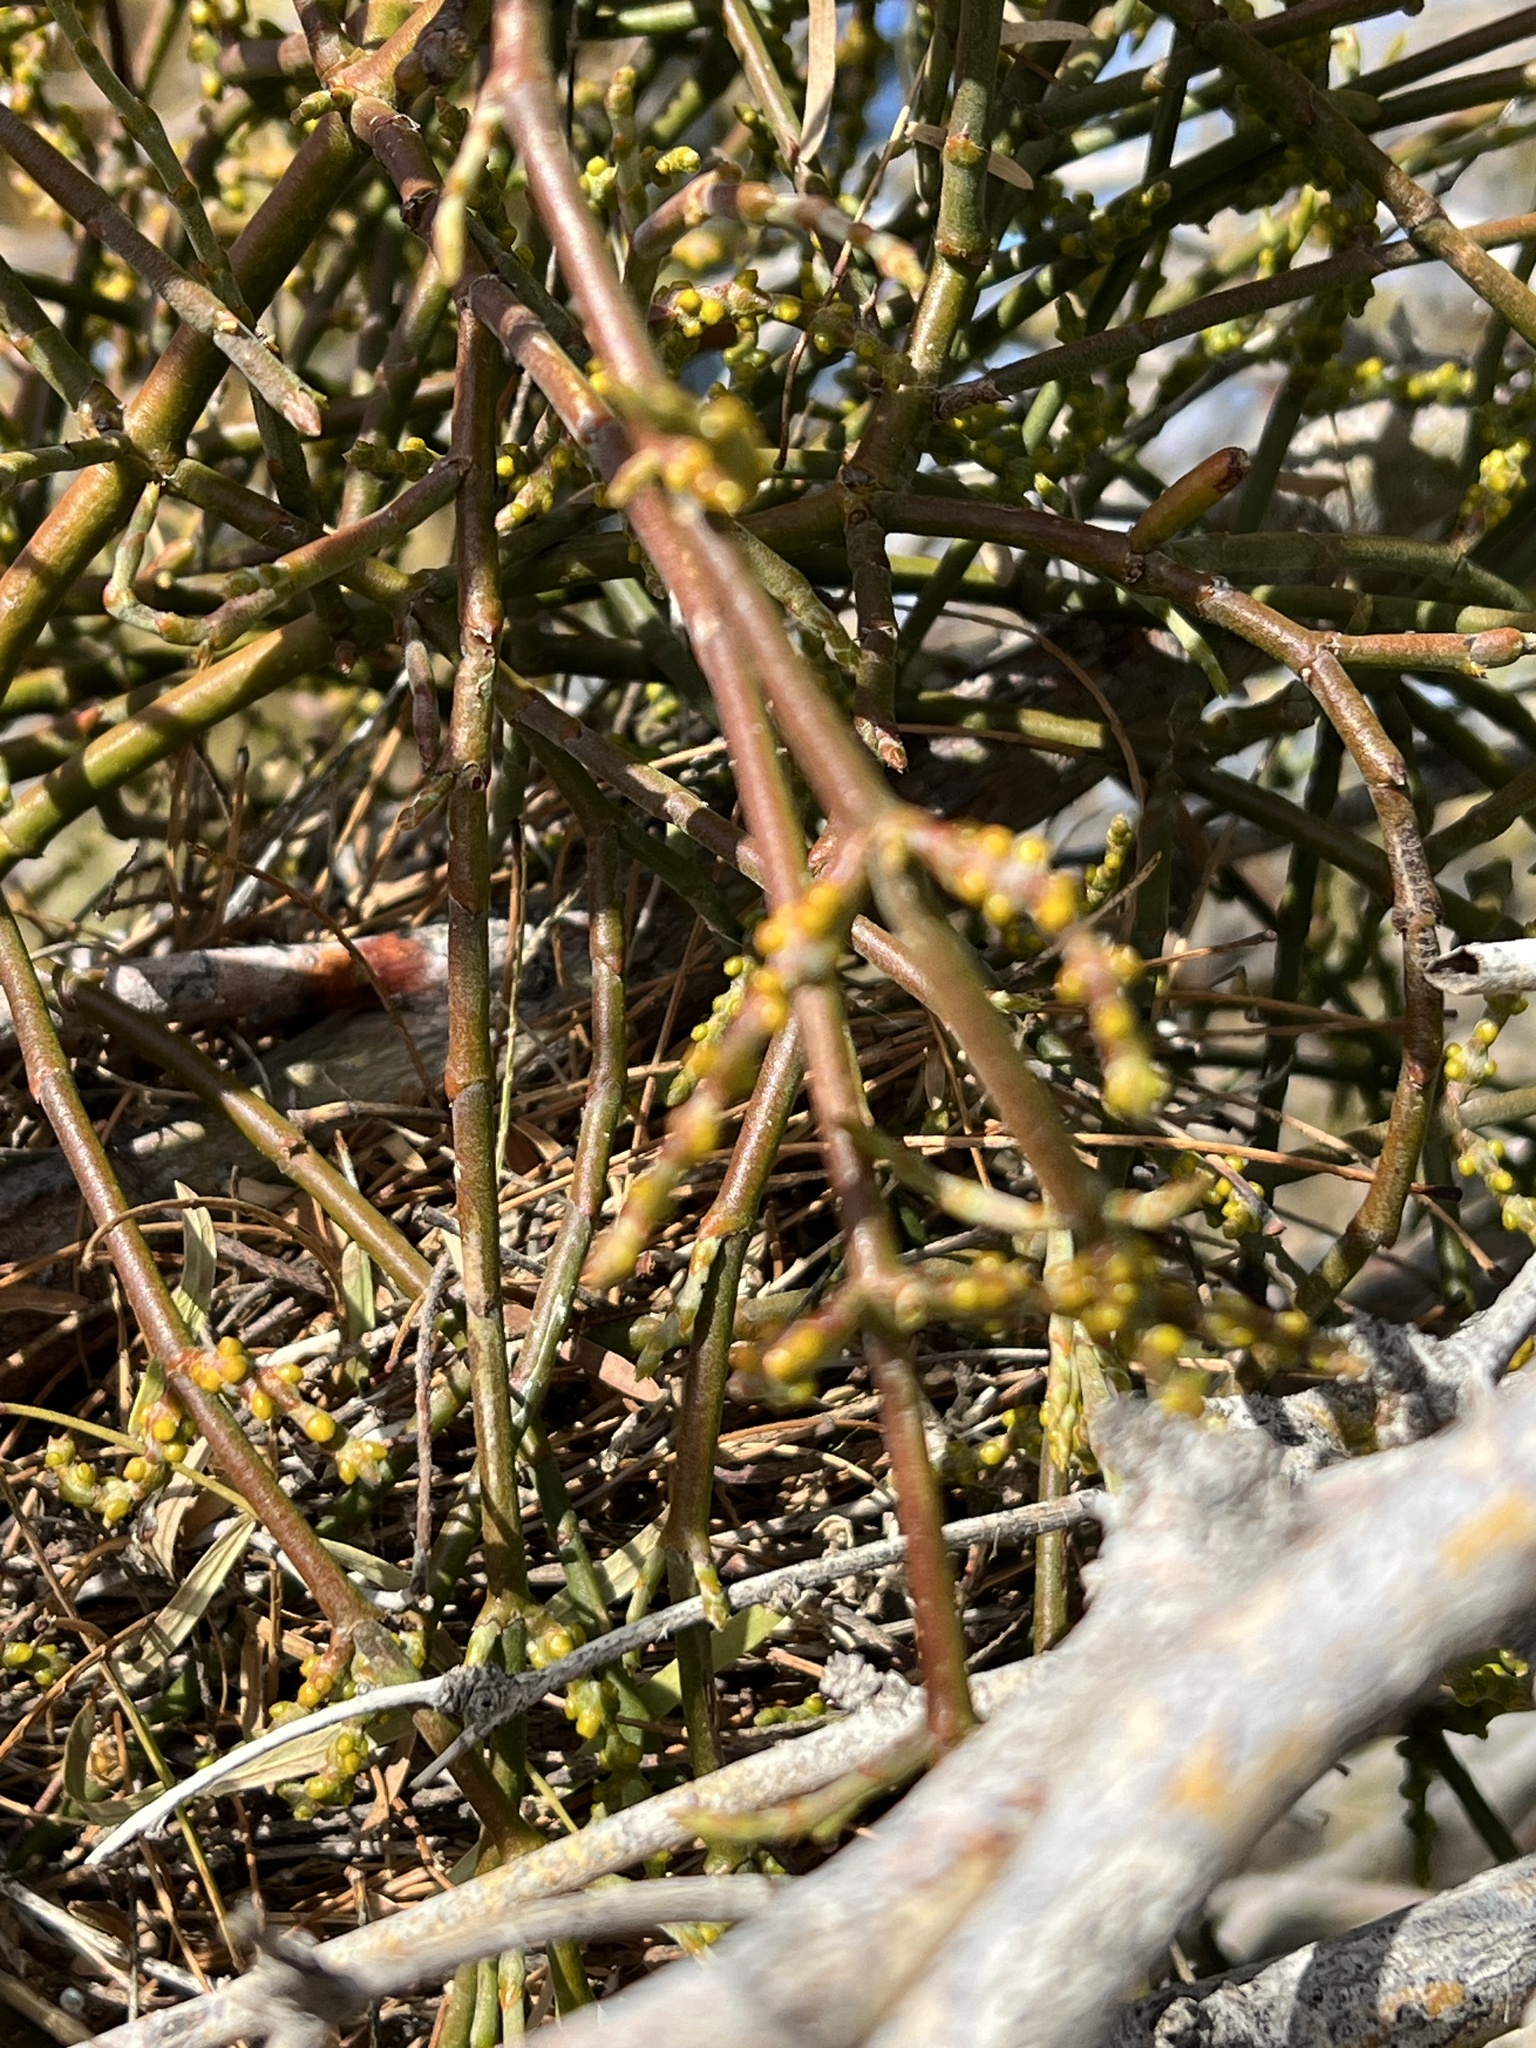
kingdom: Plantae
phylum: Tracheophyta
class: Magnoliopsida
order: Santalales
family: Viscaceae
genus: Phoradendron
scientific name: Phoradendron californicum
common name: Acacia mistletoe
